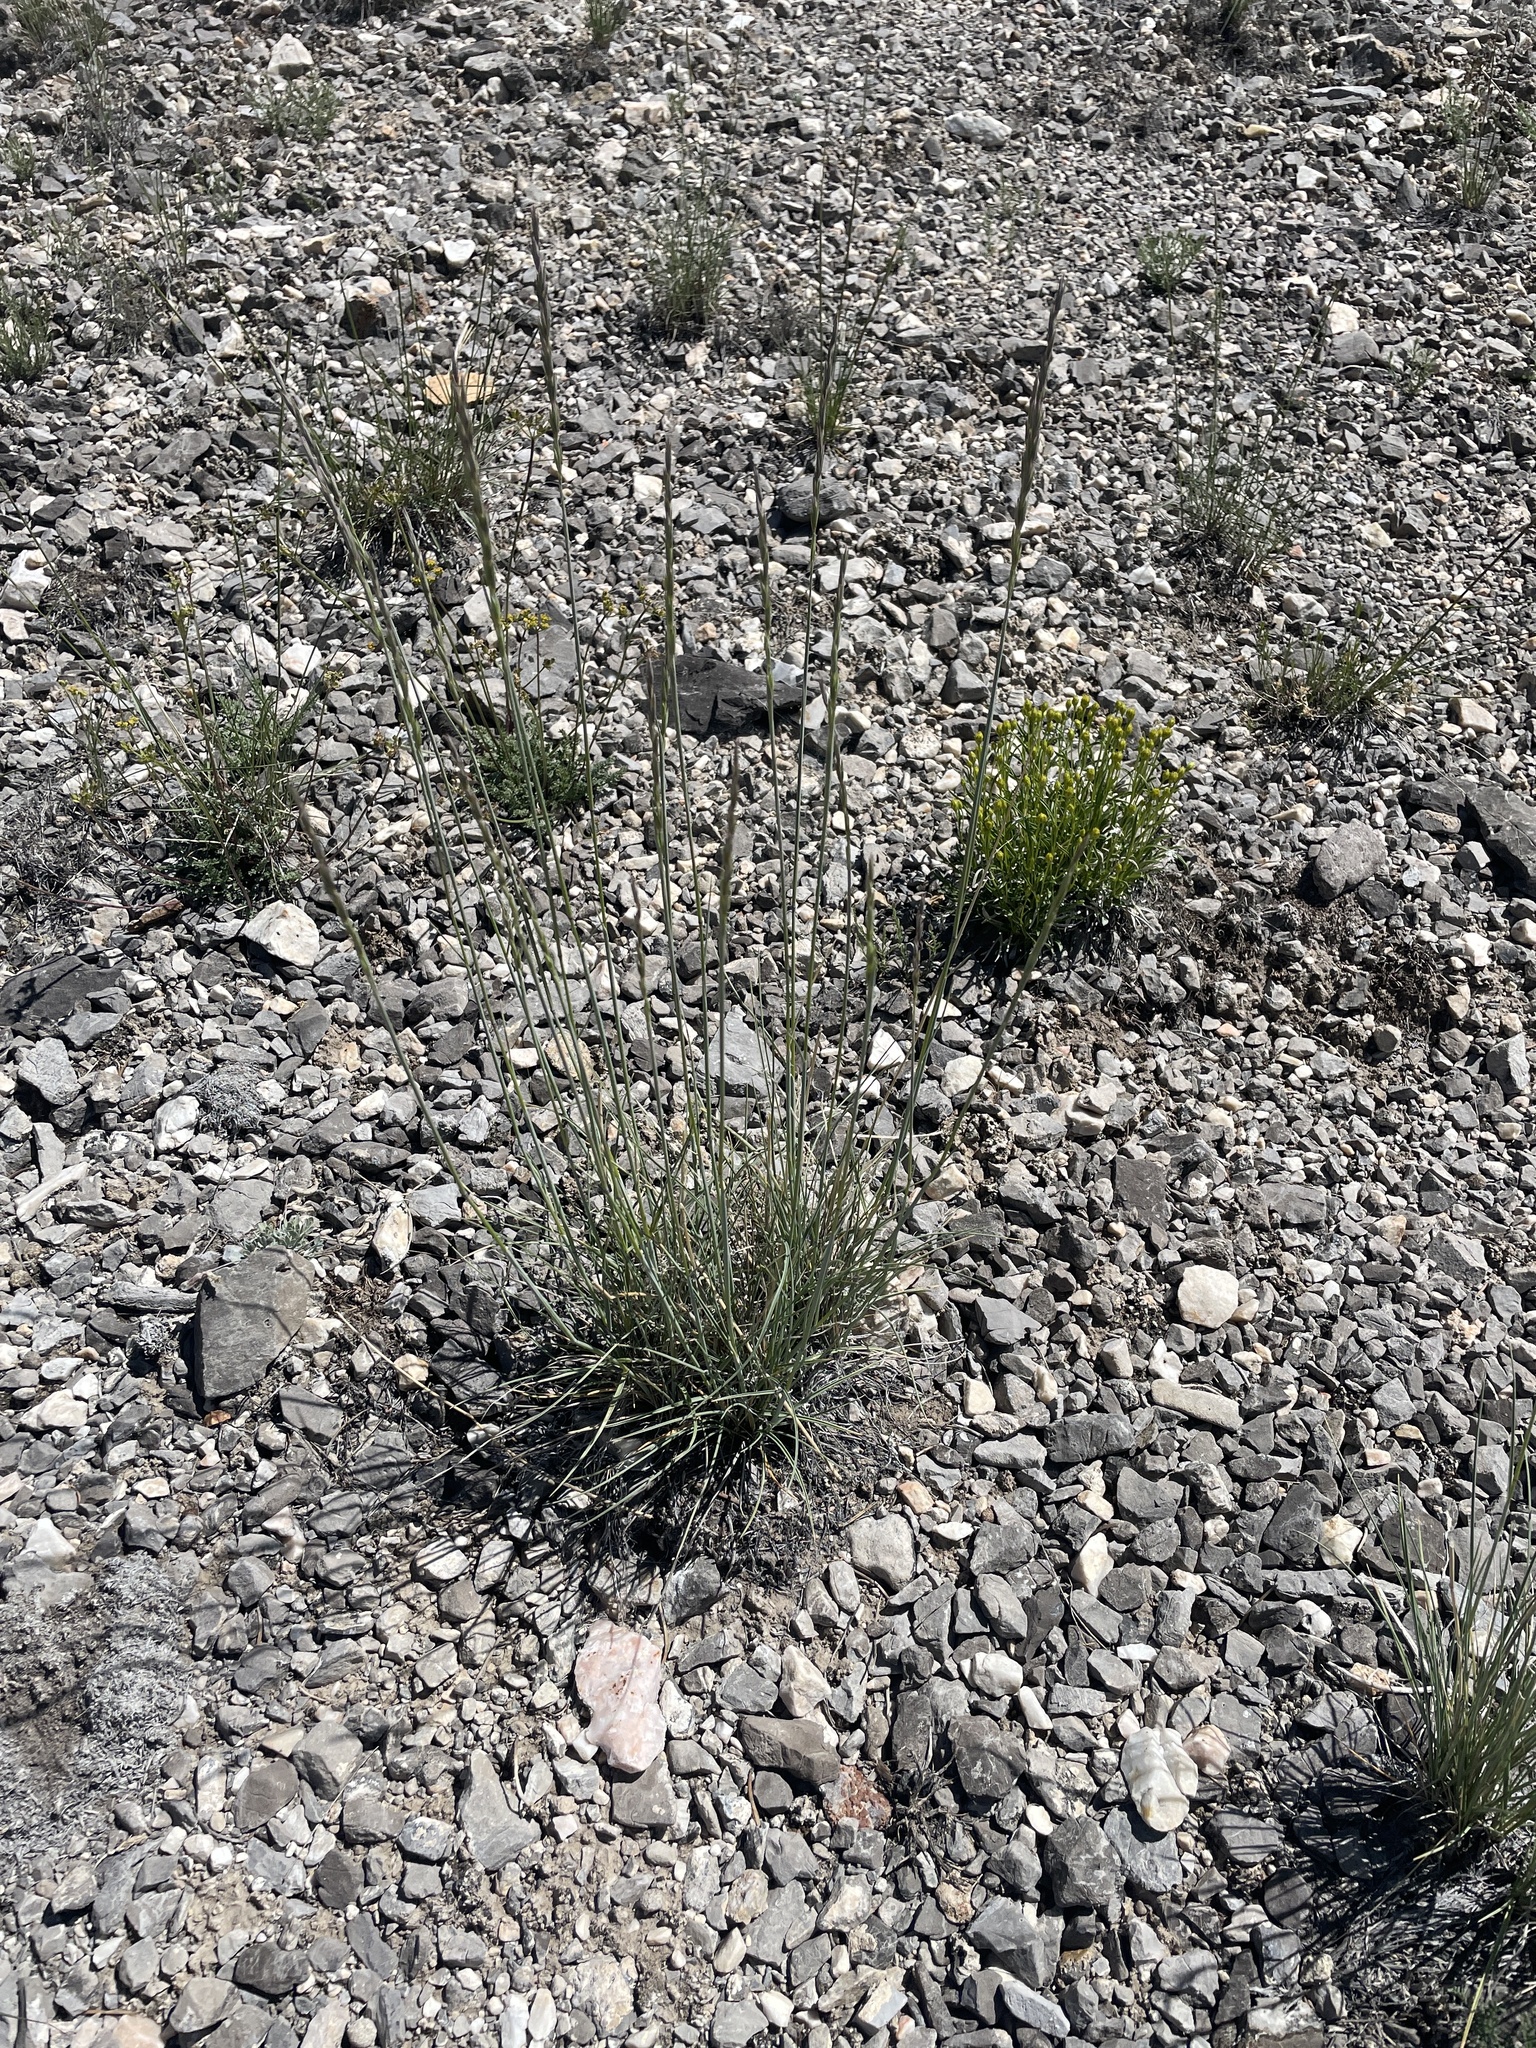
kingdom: Plantae
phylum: Tracheophyta
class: Liliopsida
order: Poales
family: Poaceae
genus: Leymus
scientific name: Leymus salina
